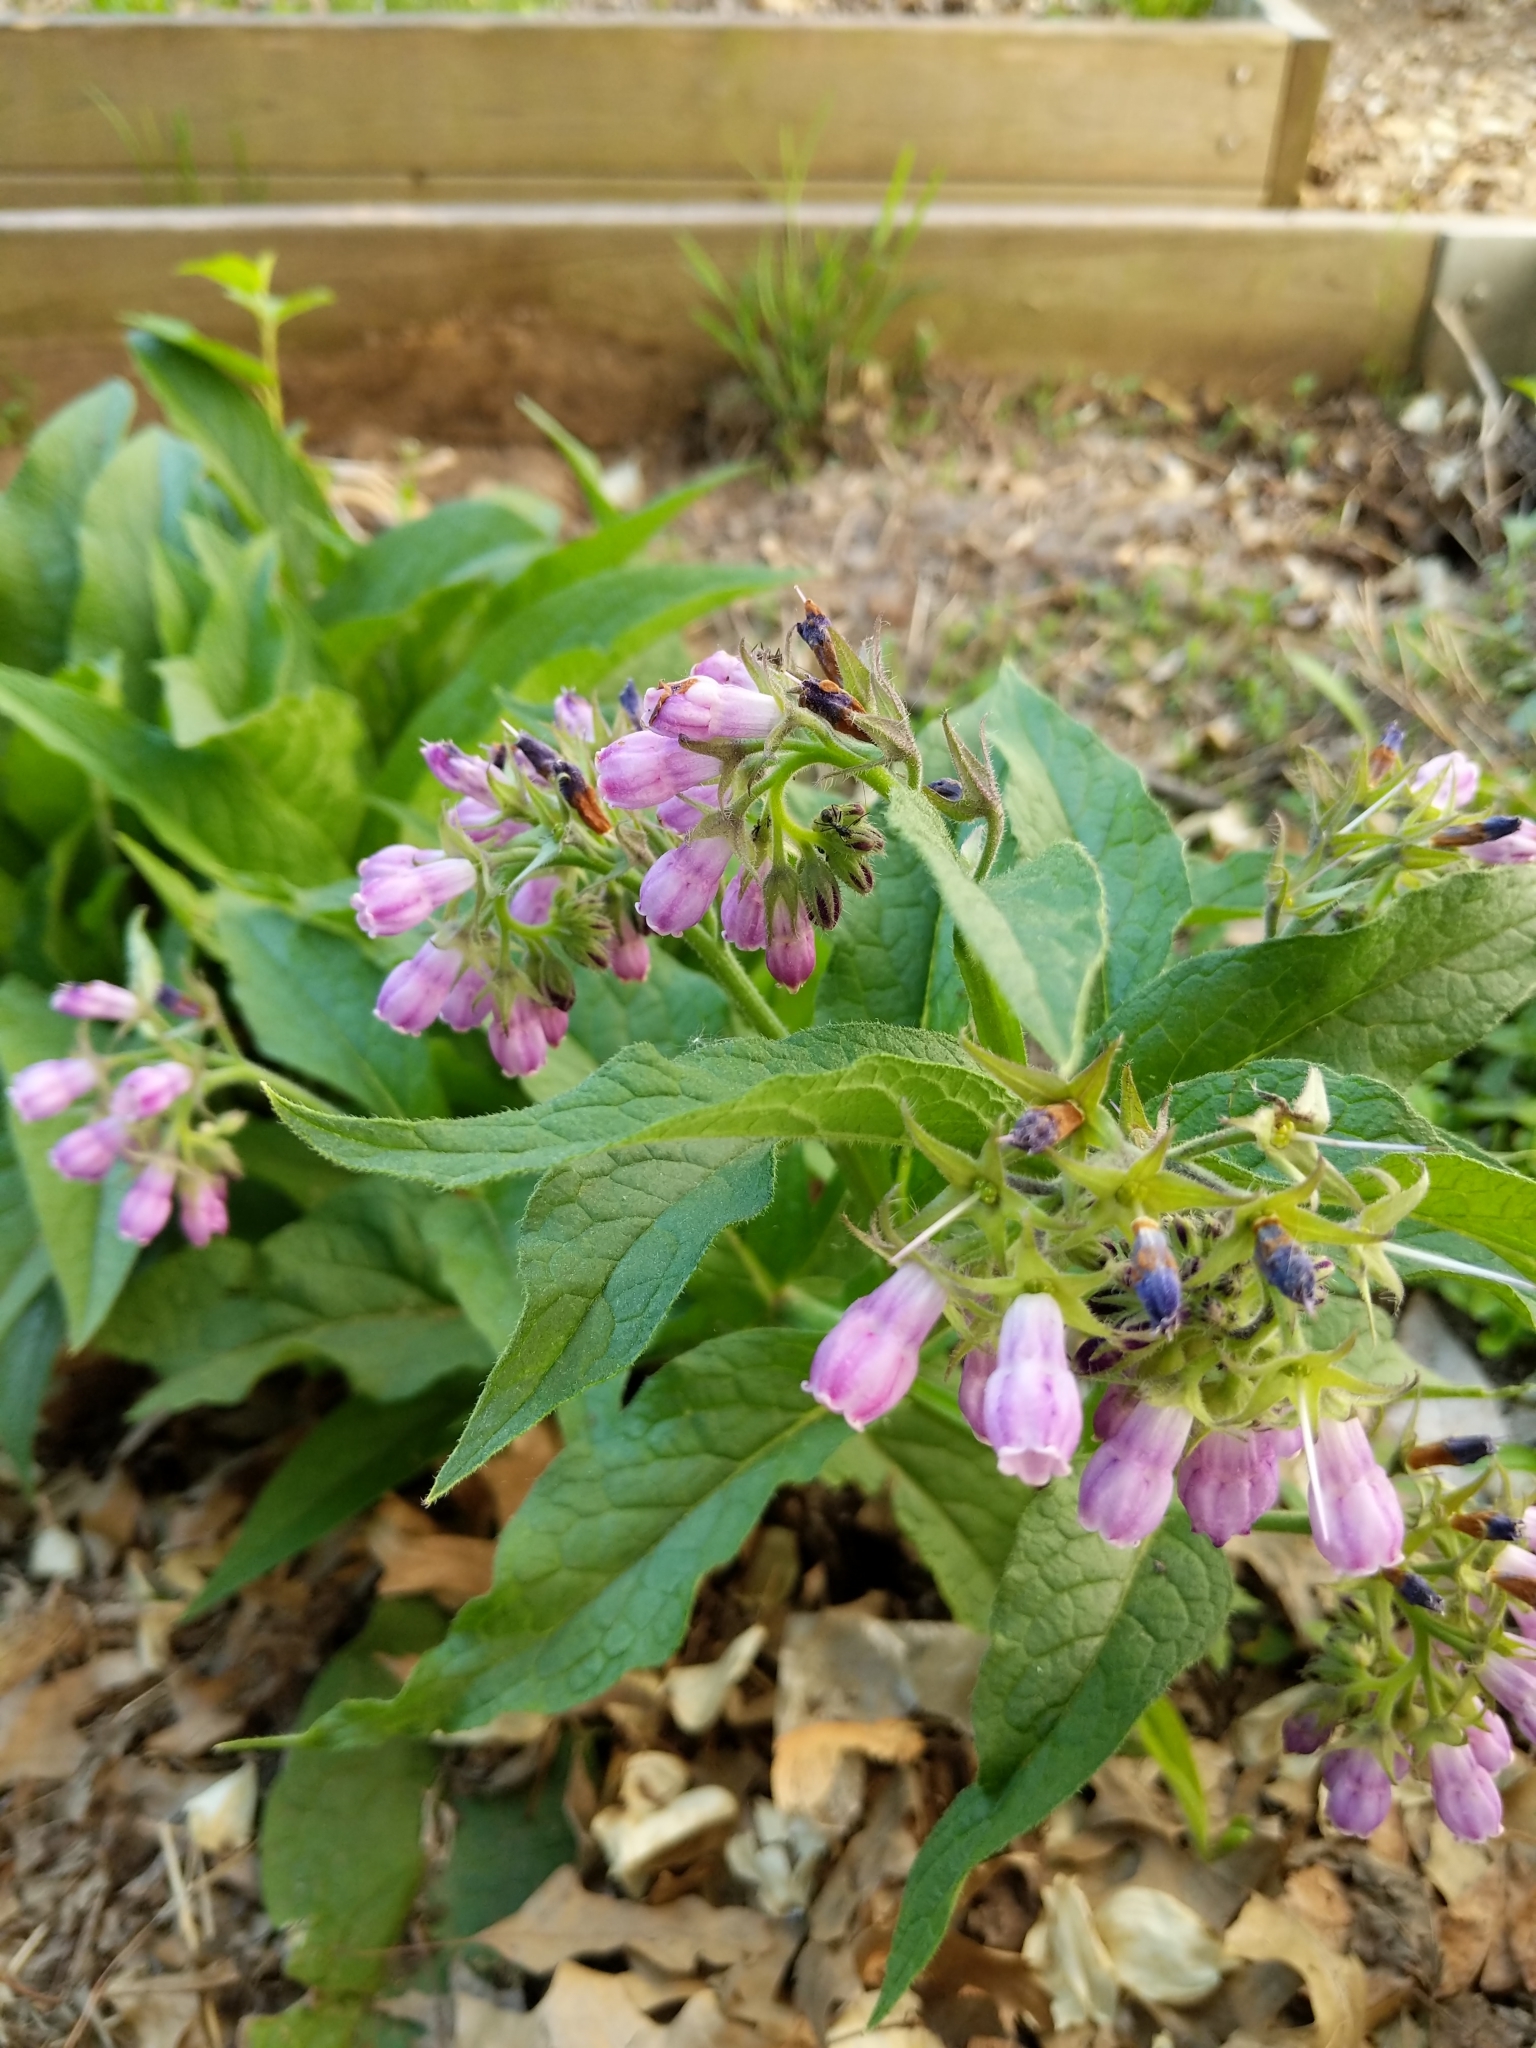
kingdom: Plantae
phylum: Tracheophyta
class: Magnoliopsida
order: Boraginales
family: Boraginaceae
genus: Symphytum
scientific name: Symphytum officinale
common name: Common comfrey
